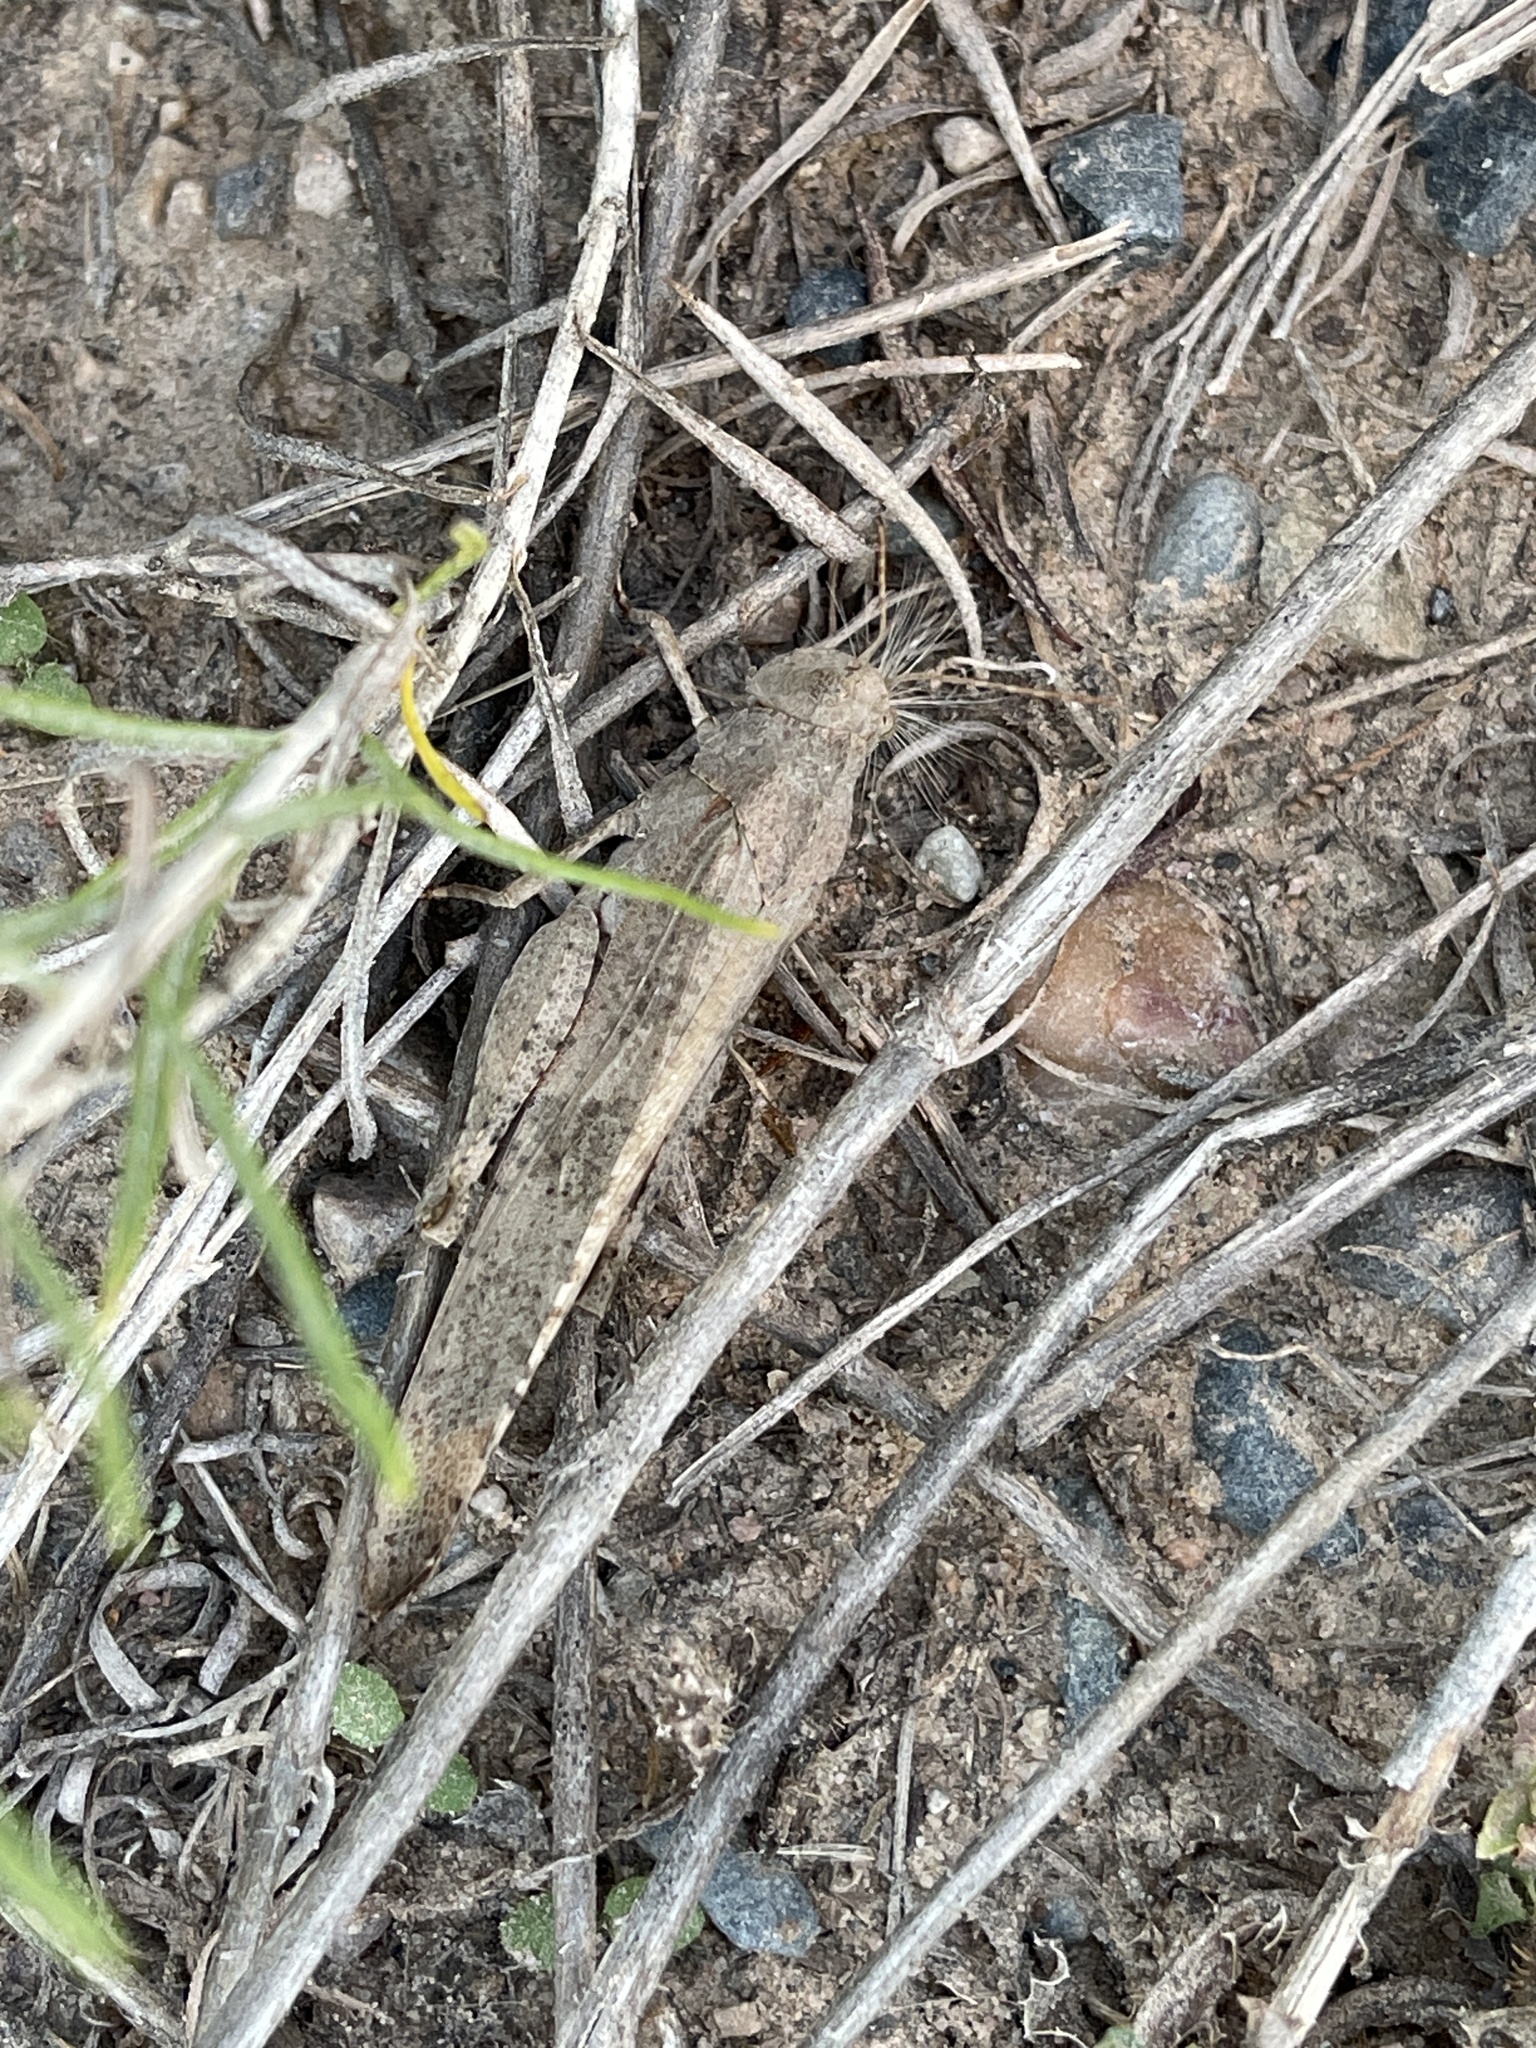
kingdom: Animalia
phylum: Arthropoda
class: Insecta
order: Orthoptera
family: Acrididae
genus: Dissosteira
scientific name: Dissosteira carolina
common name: Carolina grasshopper
